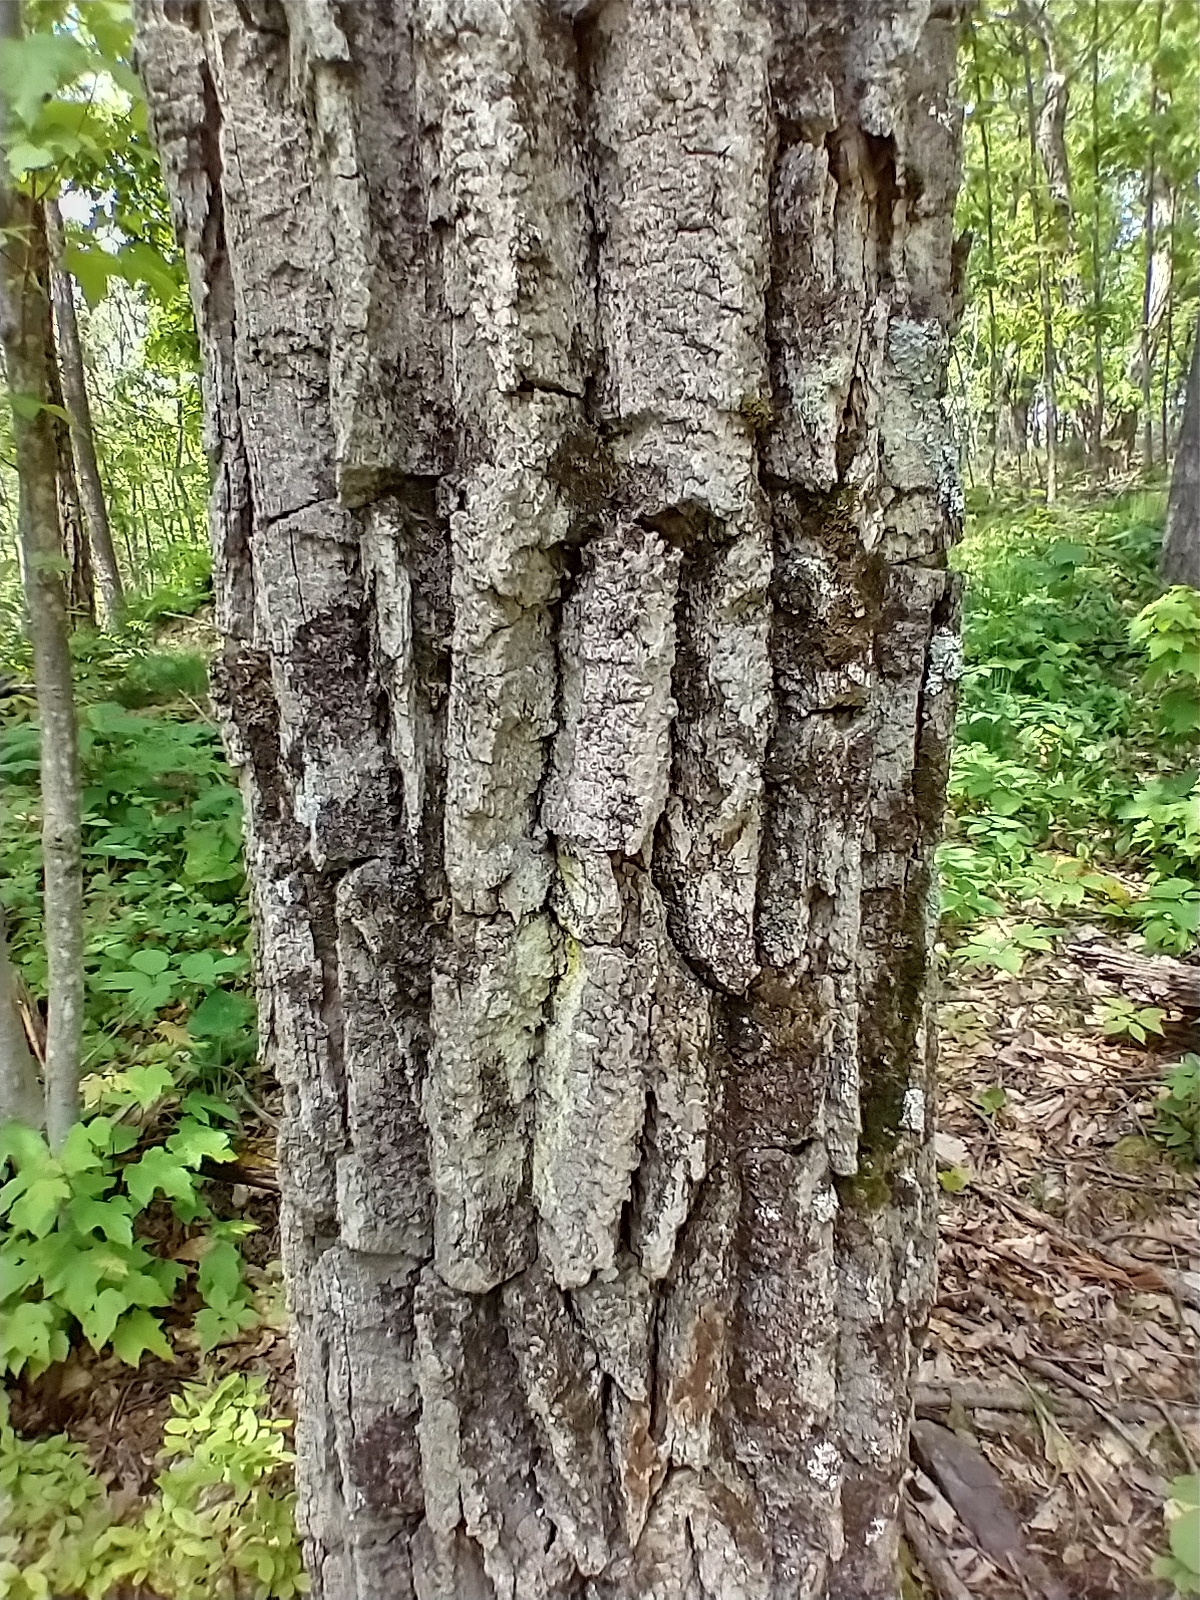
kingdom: Plantae
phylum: Tracheophyta
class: Magnoliopsida
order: Fagales
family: Fagaceae
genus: Quercus
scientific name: Quercus montana
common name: Chestnut oak
